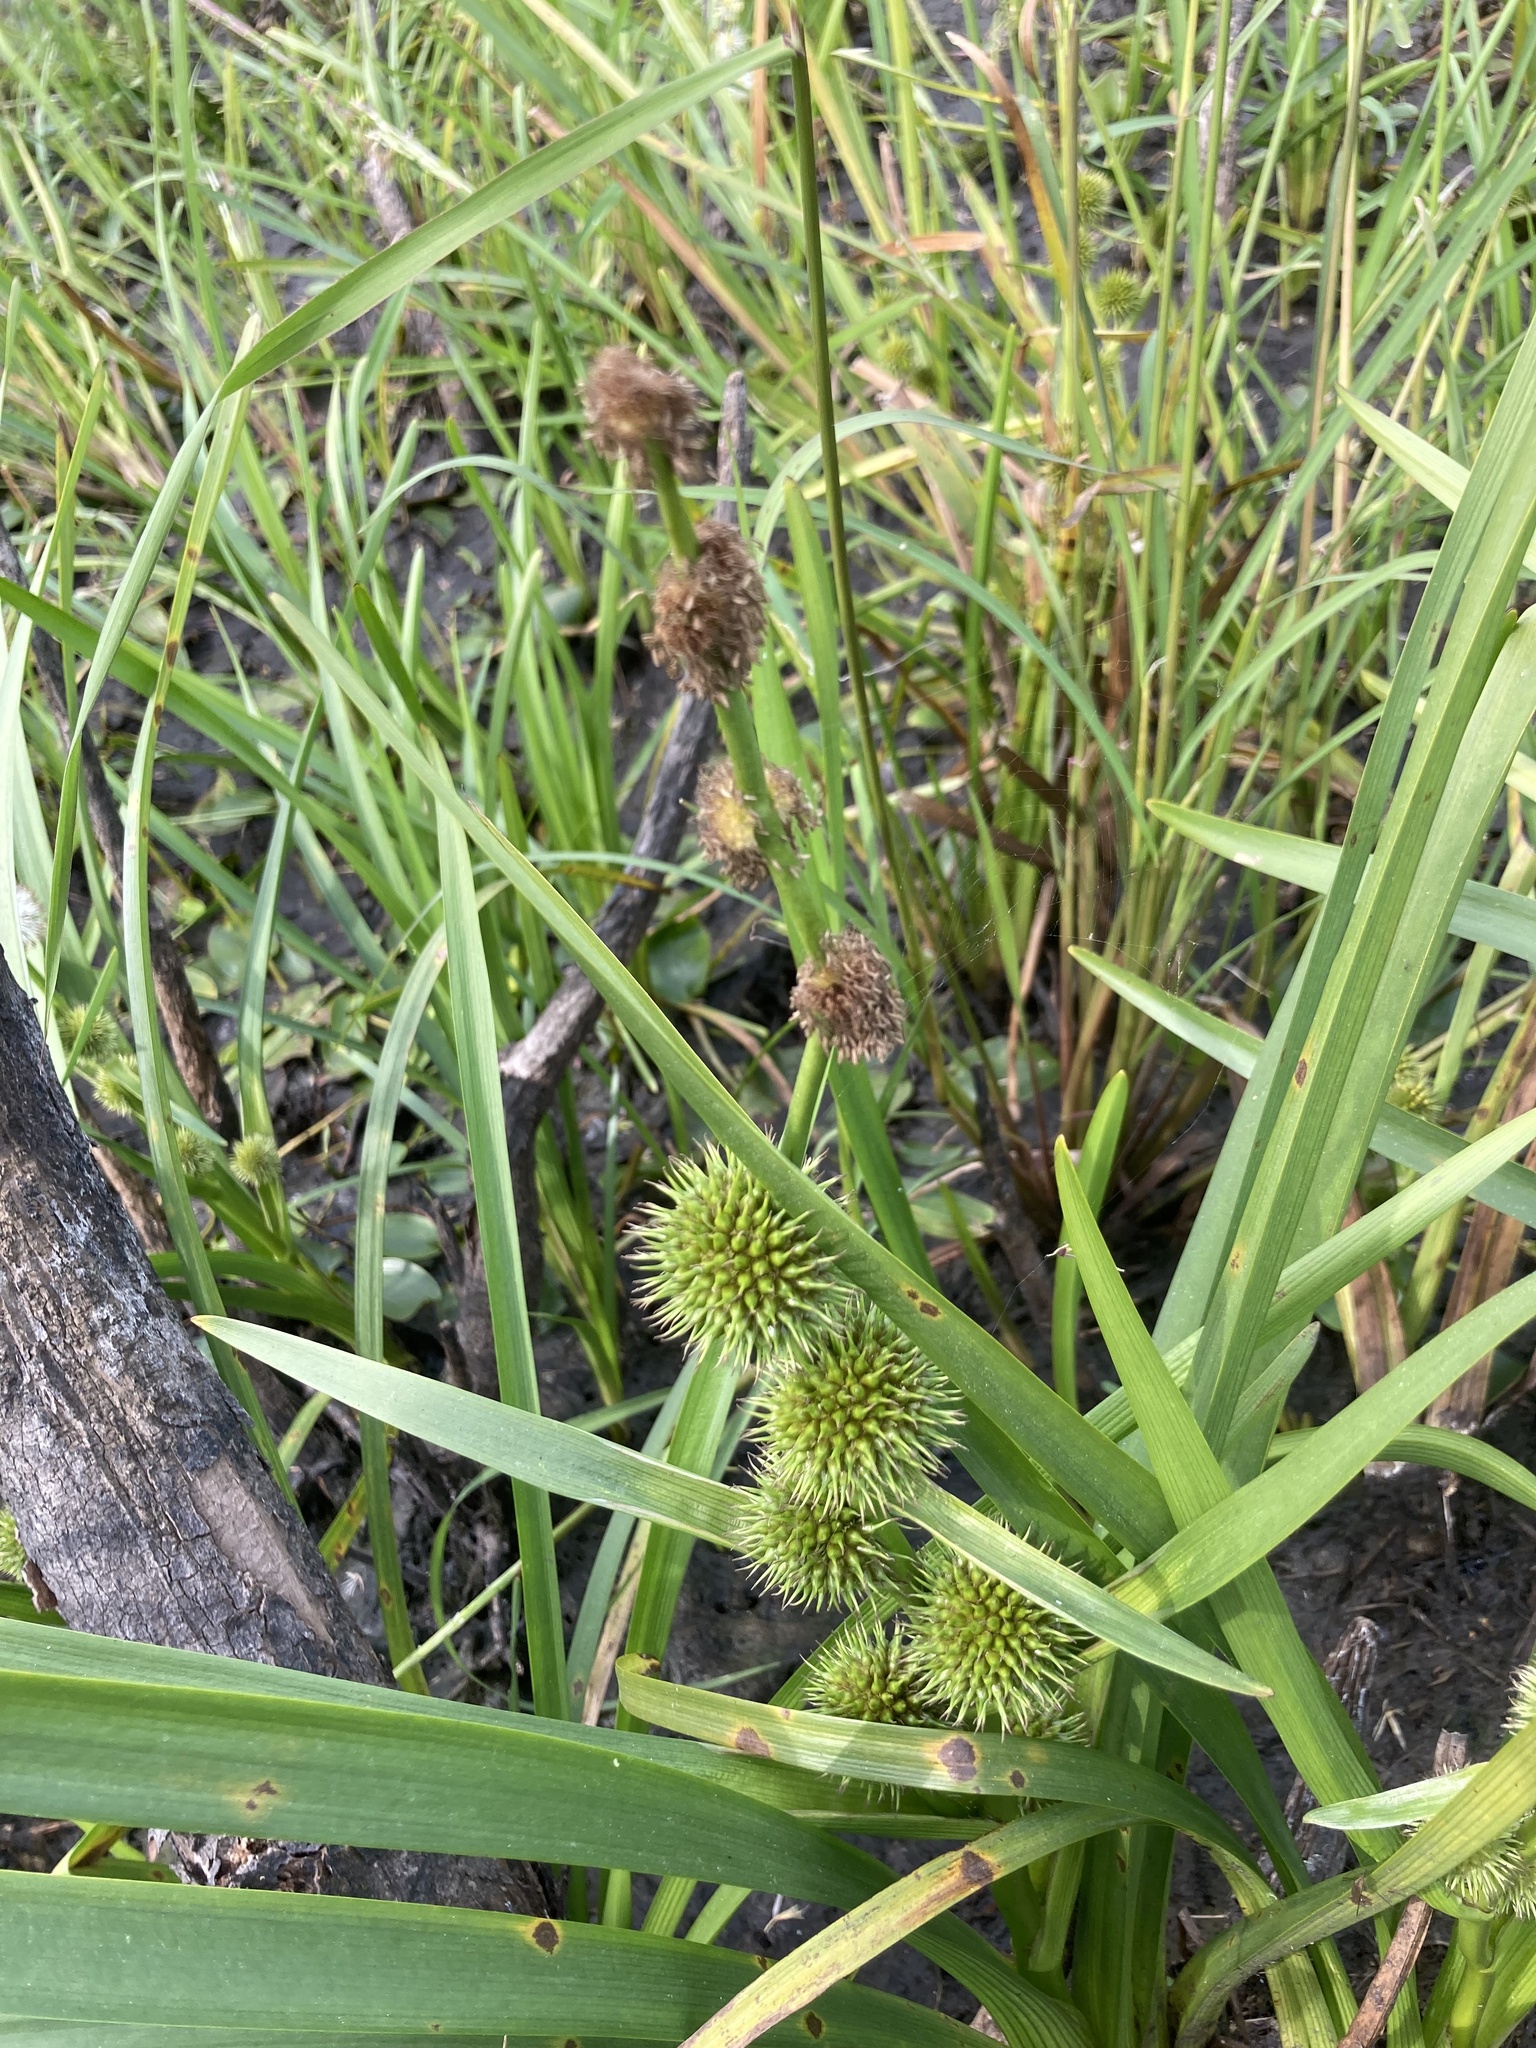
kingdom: Plantae
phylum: Tracheophyta
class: Liliopsida
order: Poales
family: Typhaceae
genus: Sparganium
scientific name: Sparganium emersum
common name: Unbranched bur-reed
